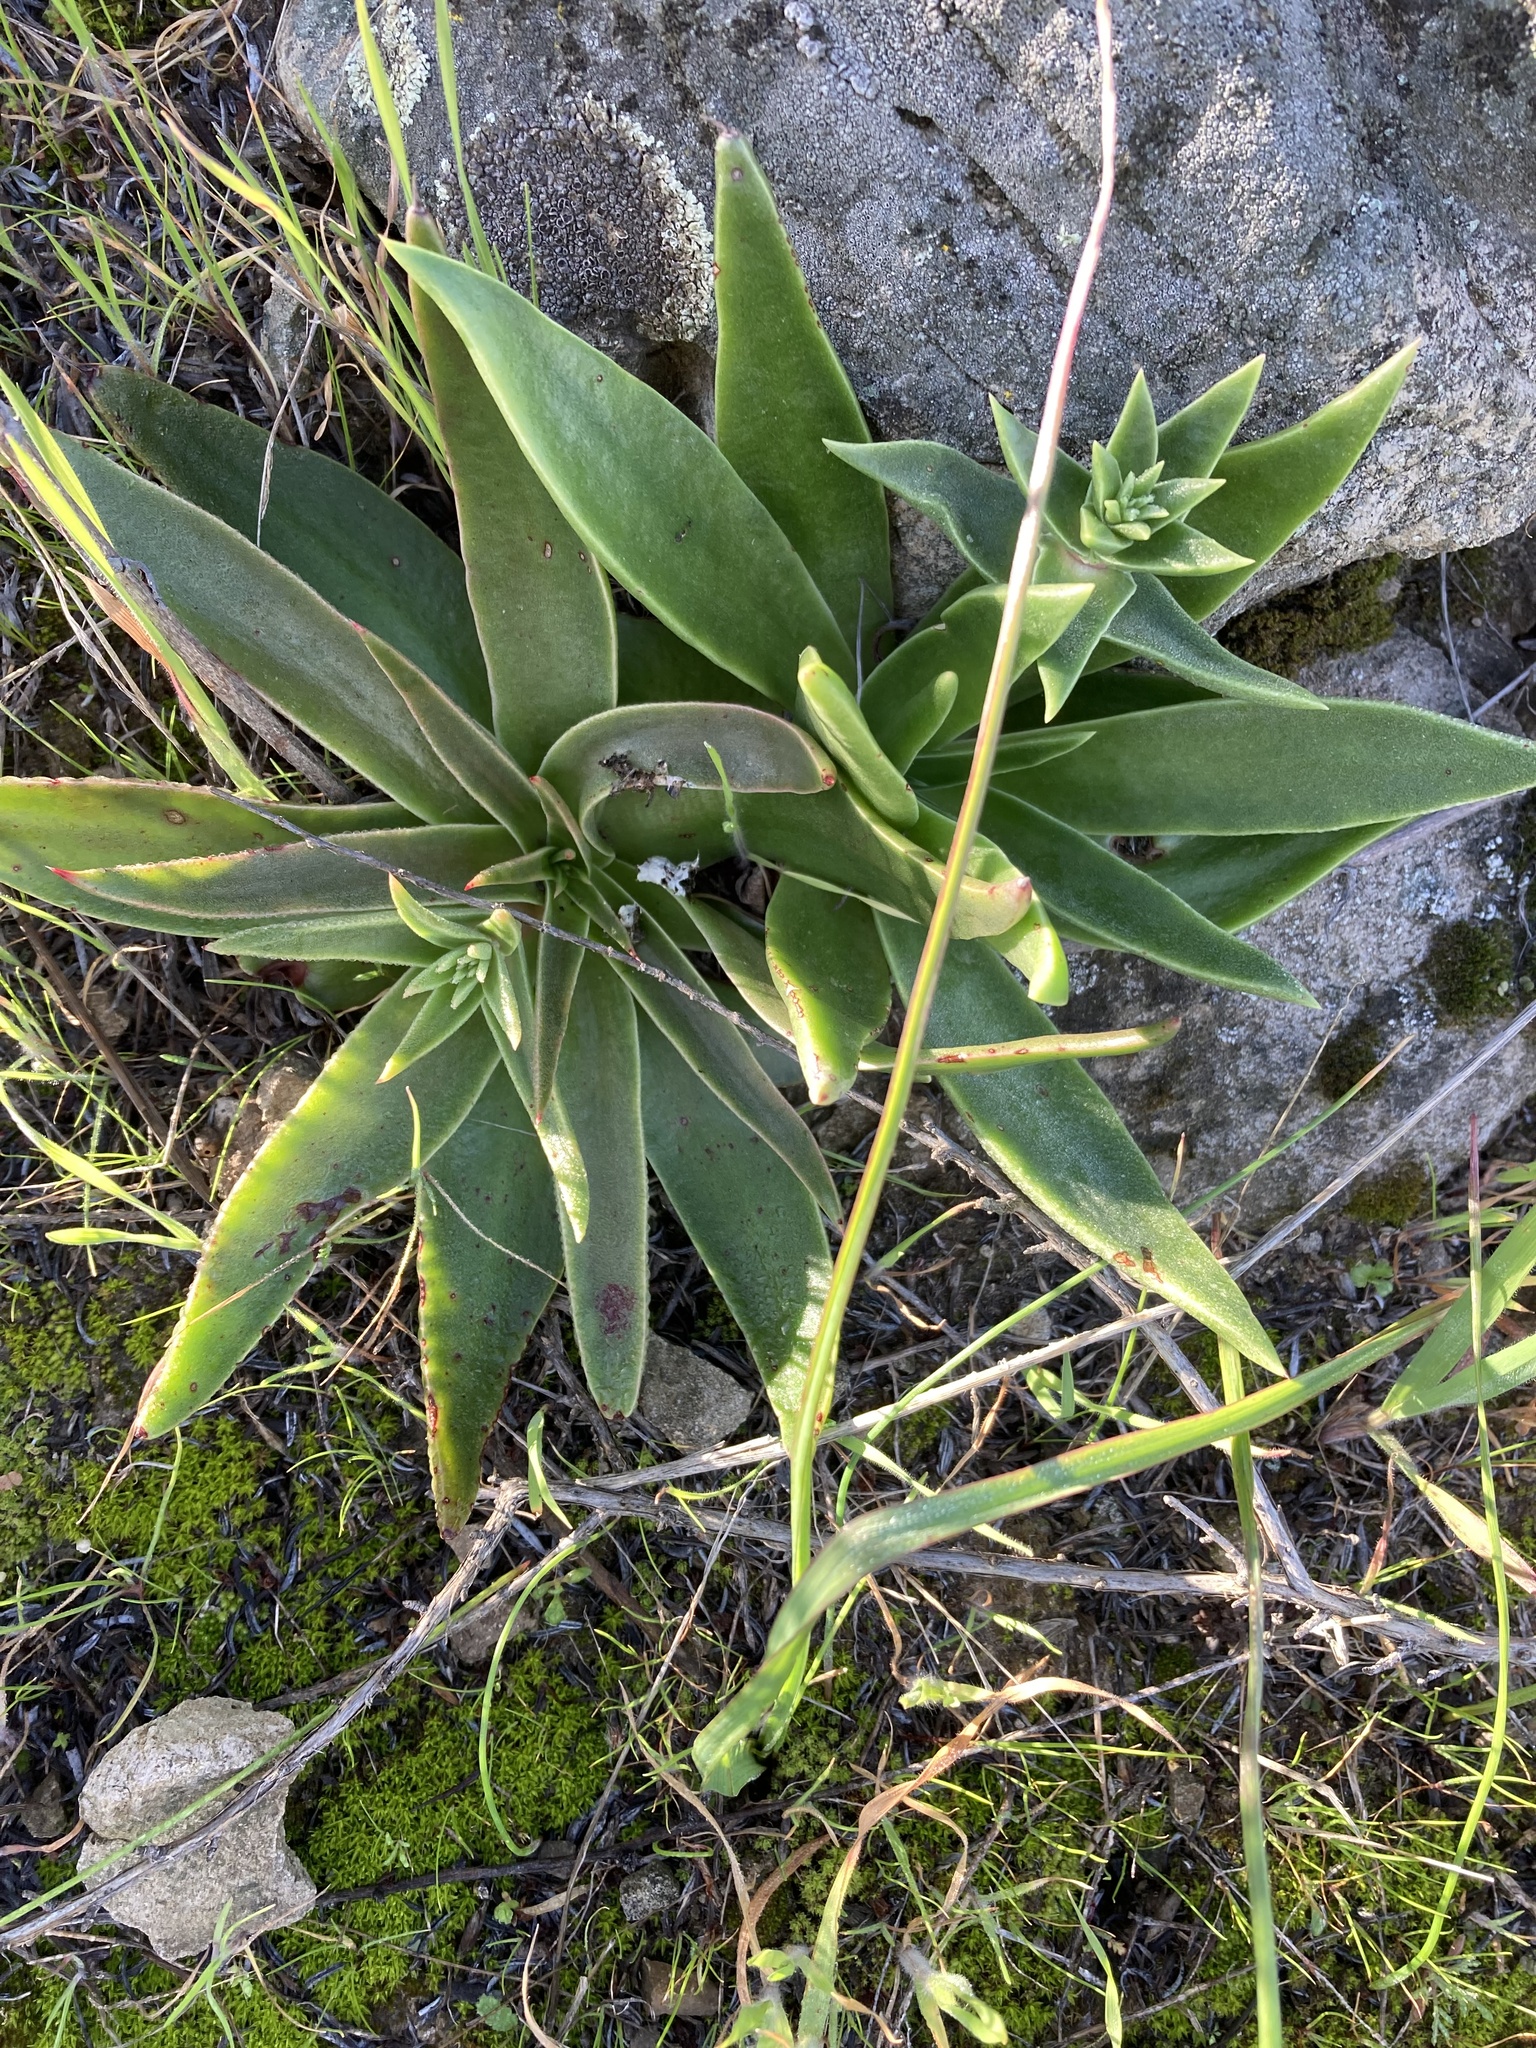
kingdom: Plantae
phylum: Tracheophyta
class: Magnoliopsida
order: Saxifragales
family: Crassulaceae
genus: Dudleya
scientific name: Dudleya lanceolata
